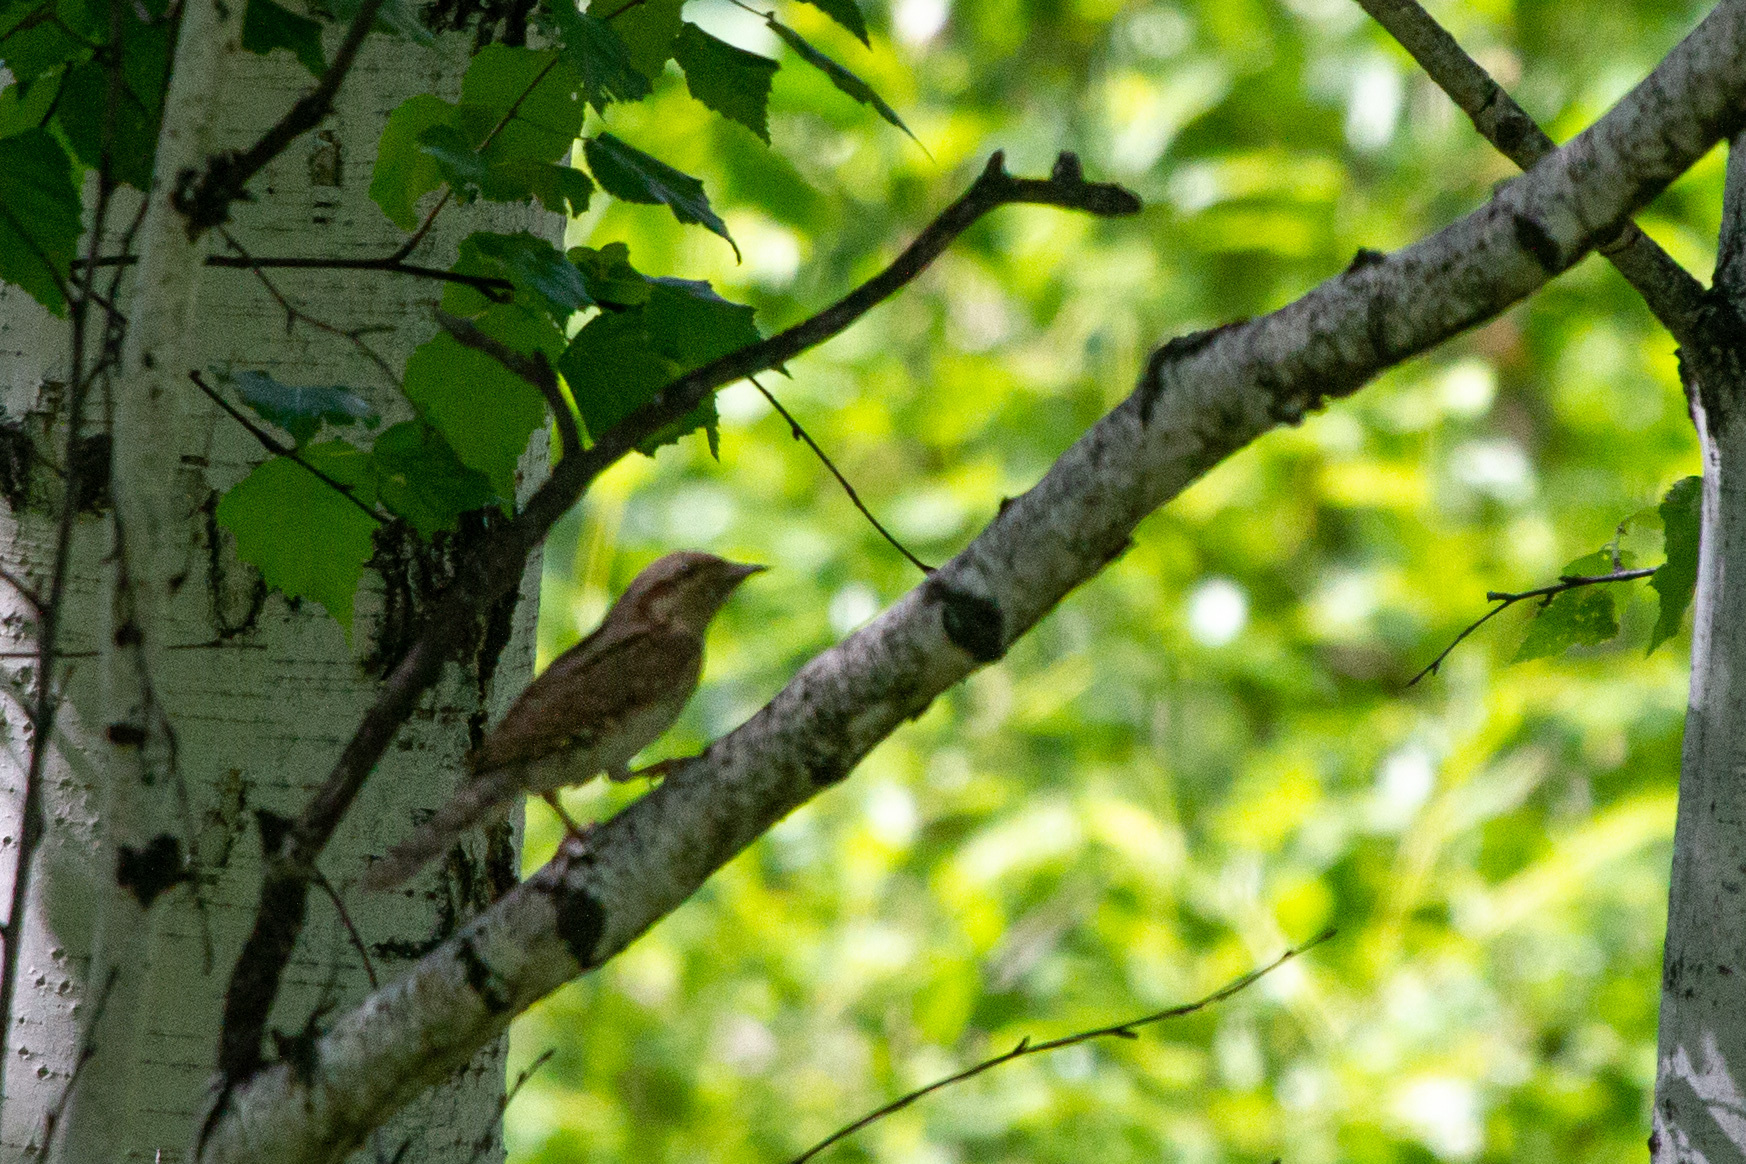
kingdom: Animalia
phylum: Chordata
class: Aves
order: Piciformes
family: Picidae
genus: Jynx
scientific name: Jynx torquilla
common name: Eurasian wryneck
